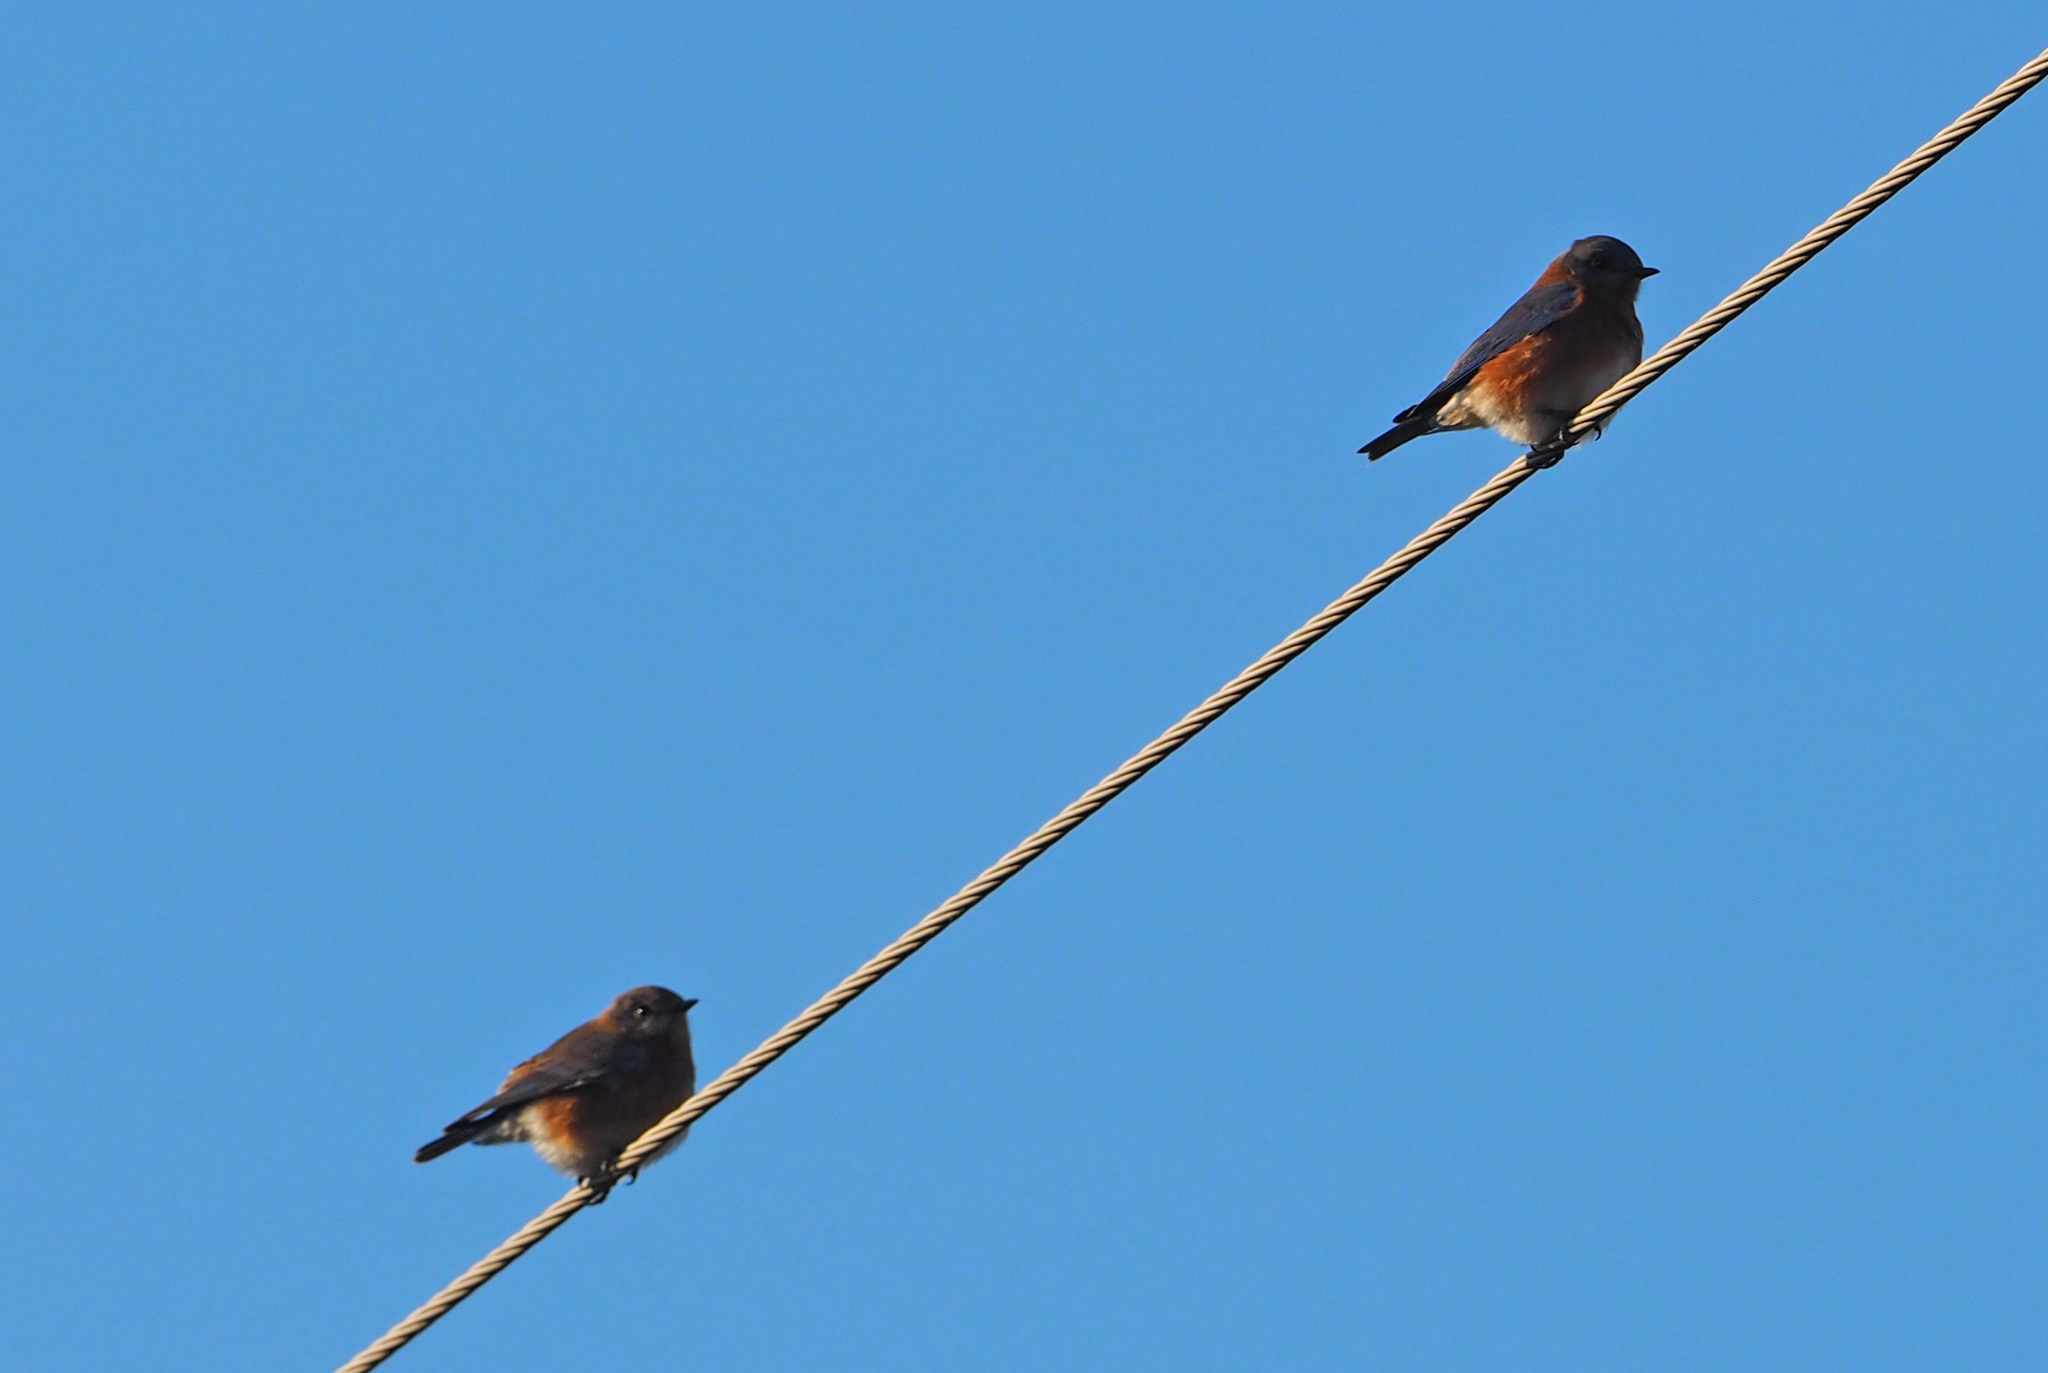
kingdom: Animalia
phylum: Chordata
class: Aves
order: Passeriformes
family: Turdidae
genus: Sialia
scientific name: Sialia sialis
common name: Eastern bluebird
